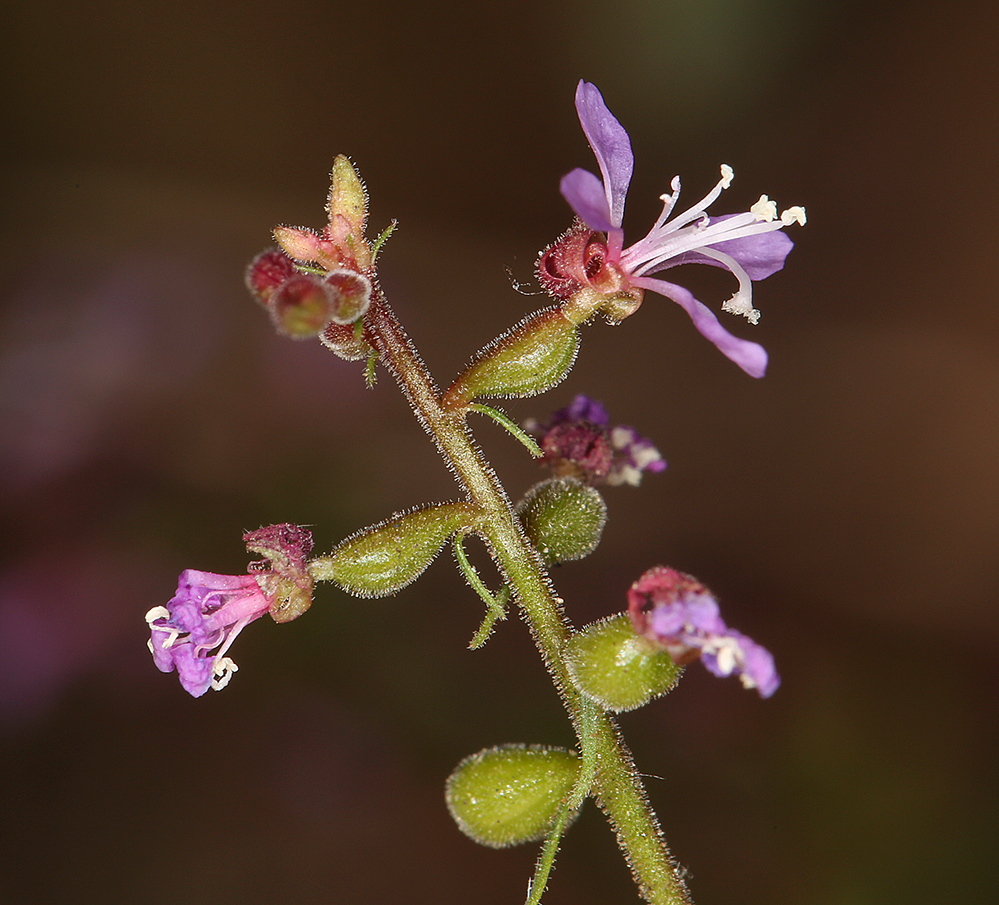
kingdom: Plantae
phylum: Tracheophyta
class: Magnoliopsida
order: Myrtales
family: Onagraceae
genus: Clarkia
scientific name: Clarkia heterandra
